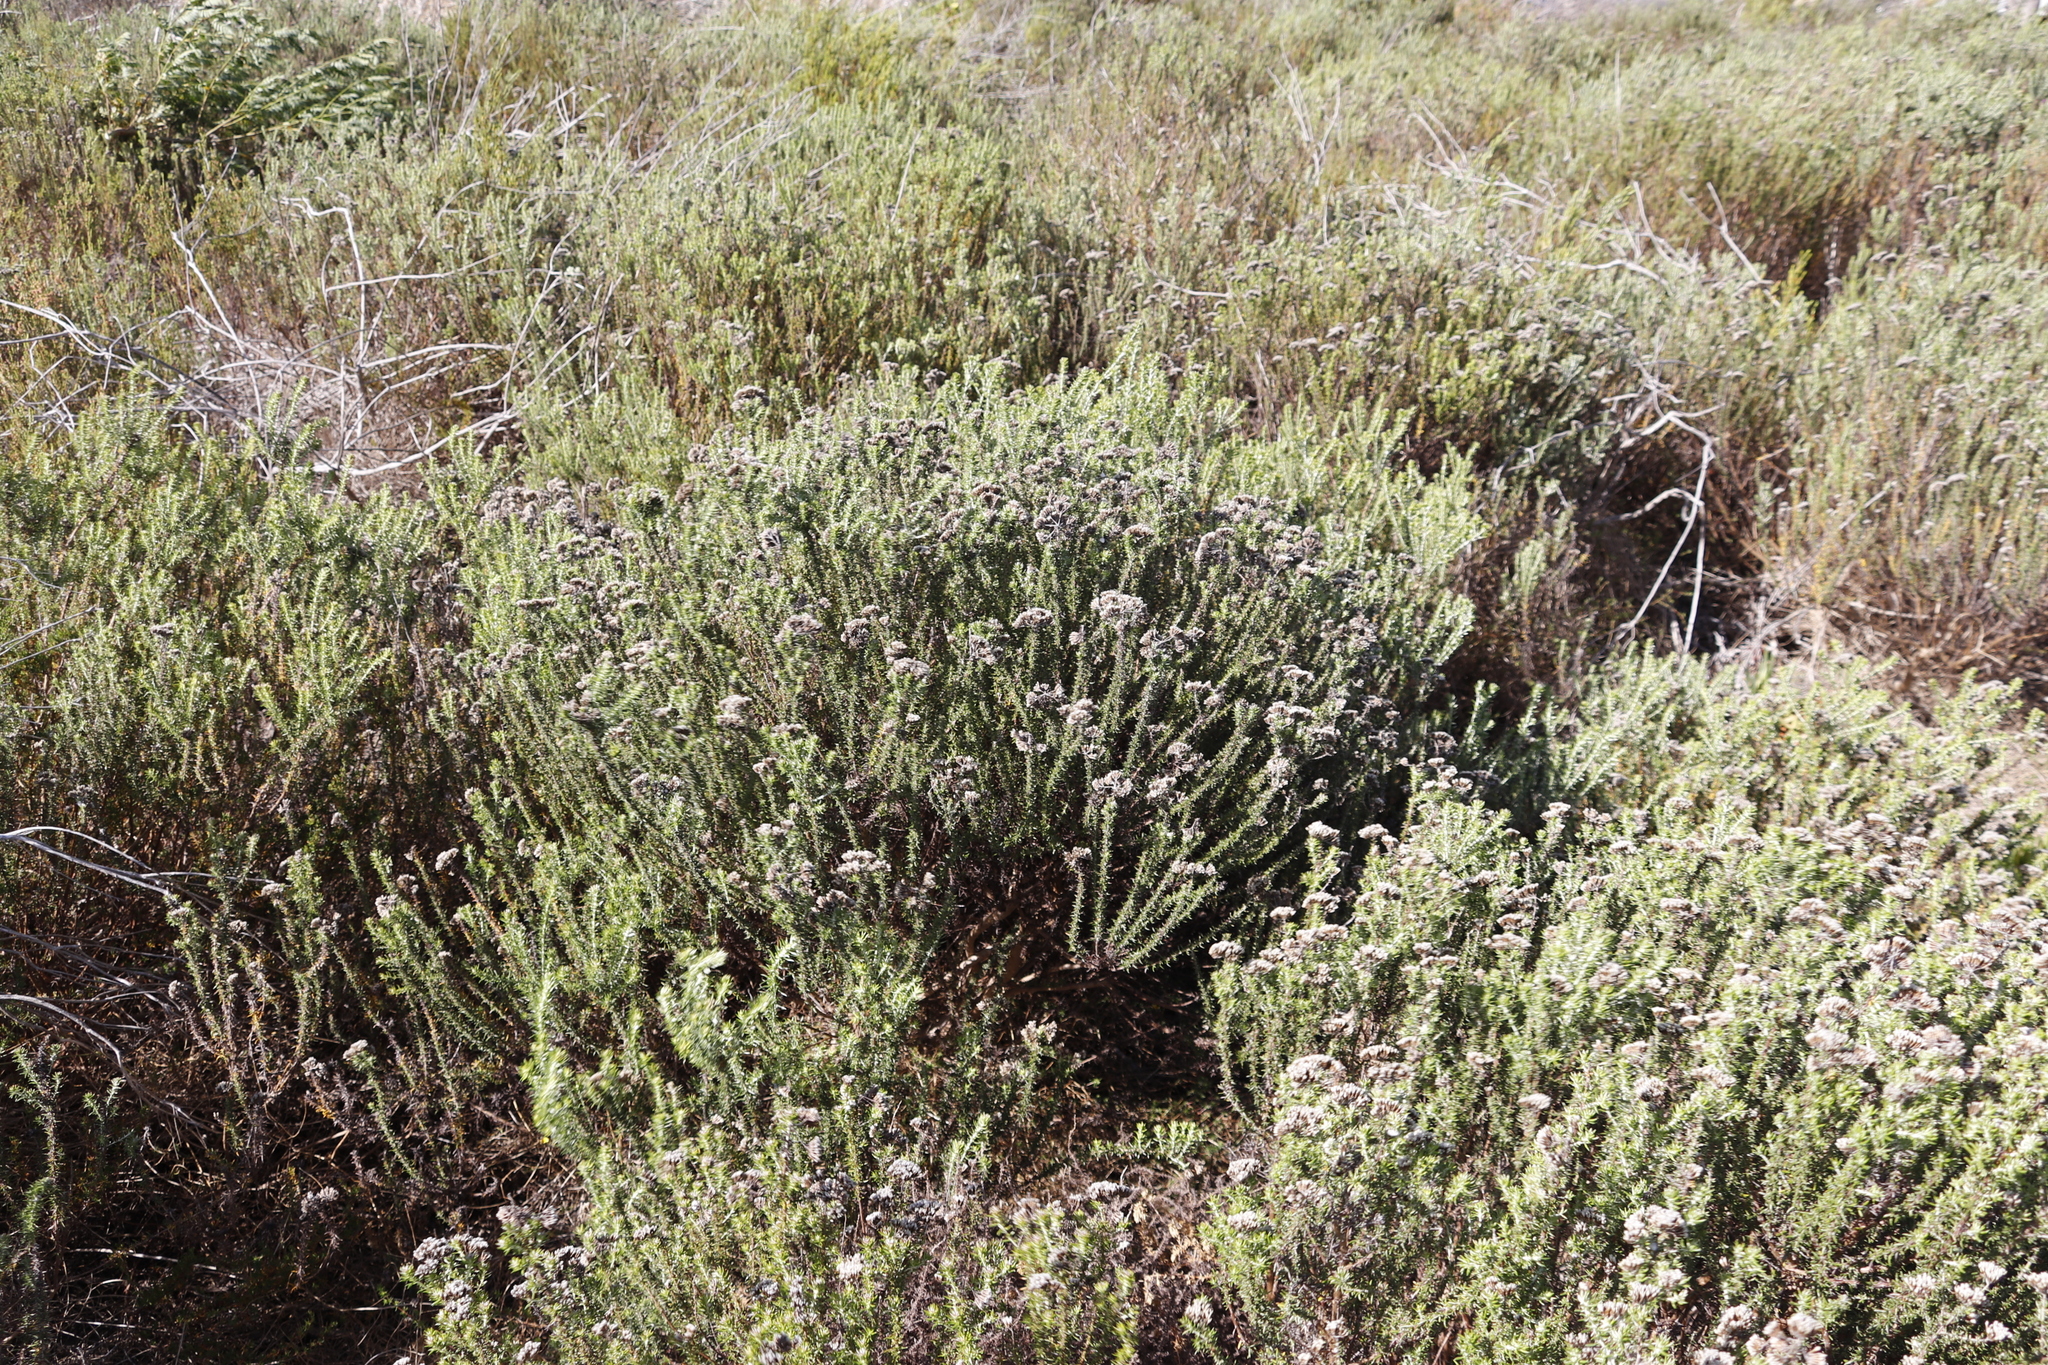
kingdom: Plantae
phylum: Tracheophyta
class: Magnoliopsida
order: Asterales
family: Asteraceae
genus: Metalasia
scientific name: Metalasia densa
